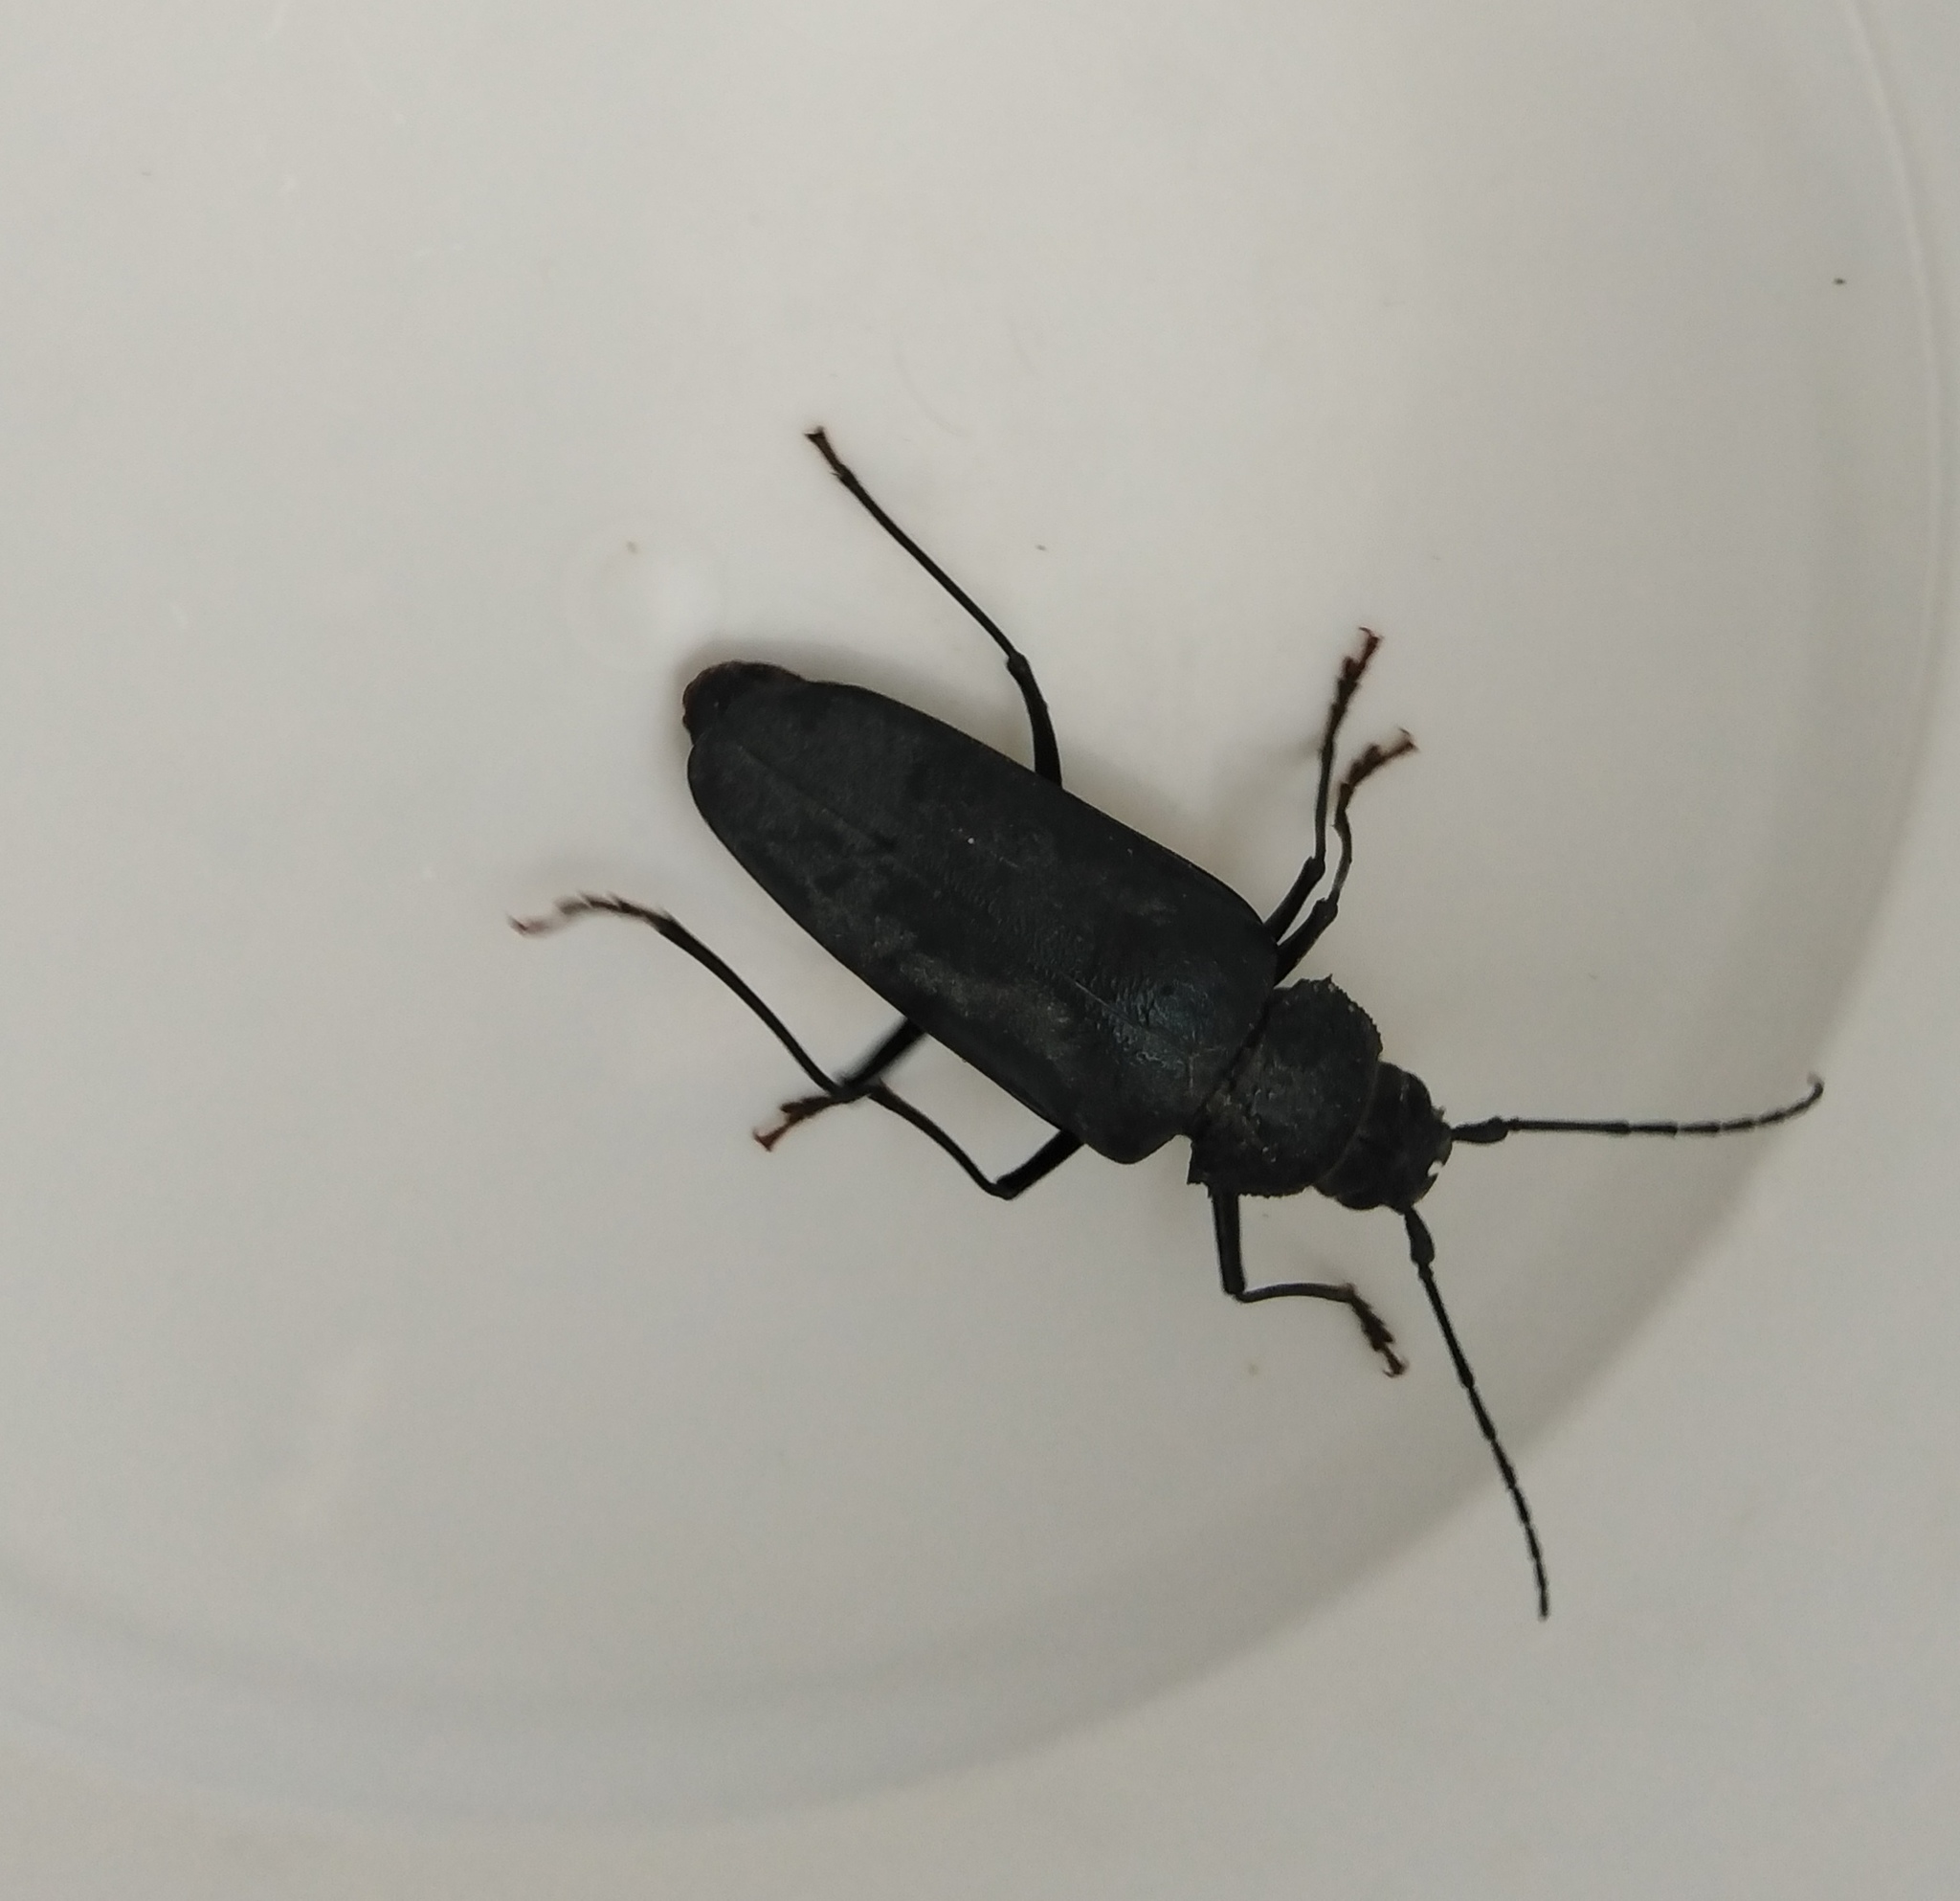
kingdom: Animalia
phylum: Arthropoda
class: Insecta
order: Coleoptera
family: Cerambycidae
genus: Ergates
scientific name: Ergates faber
